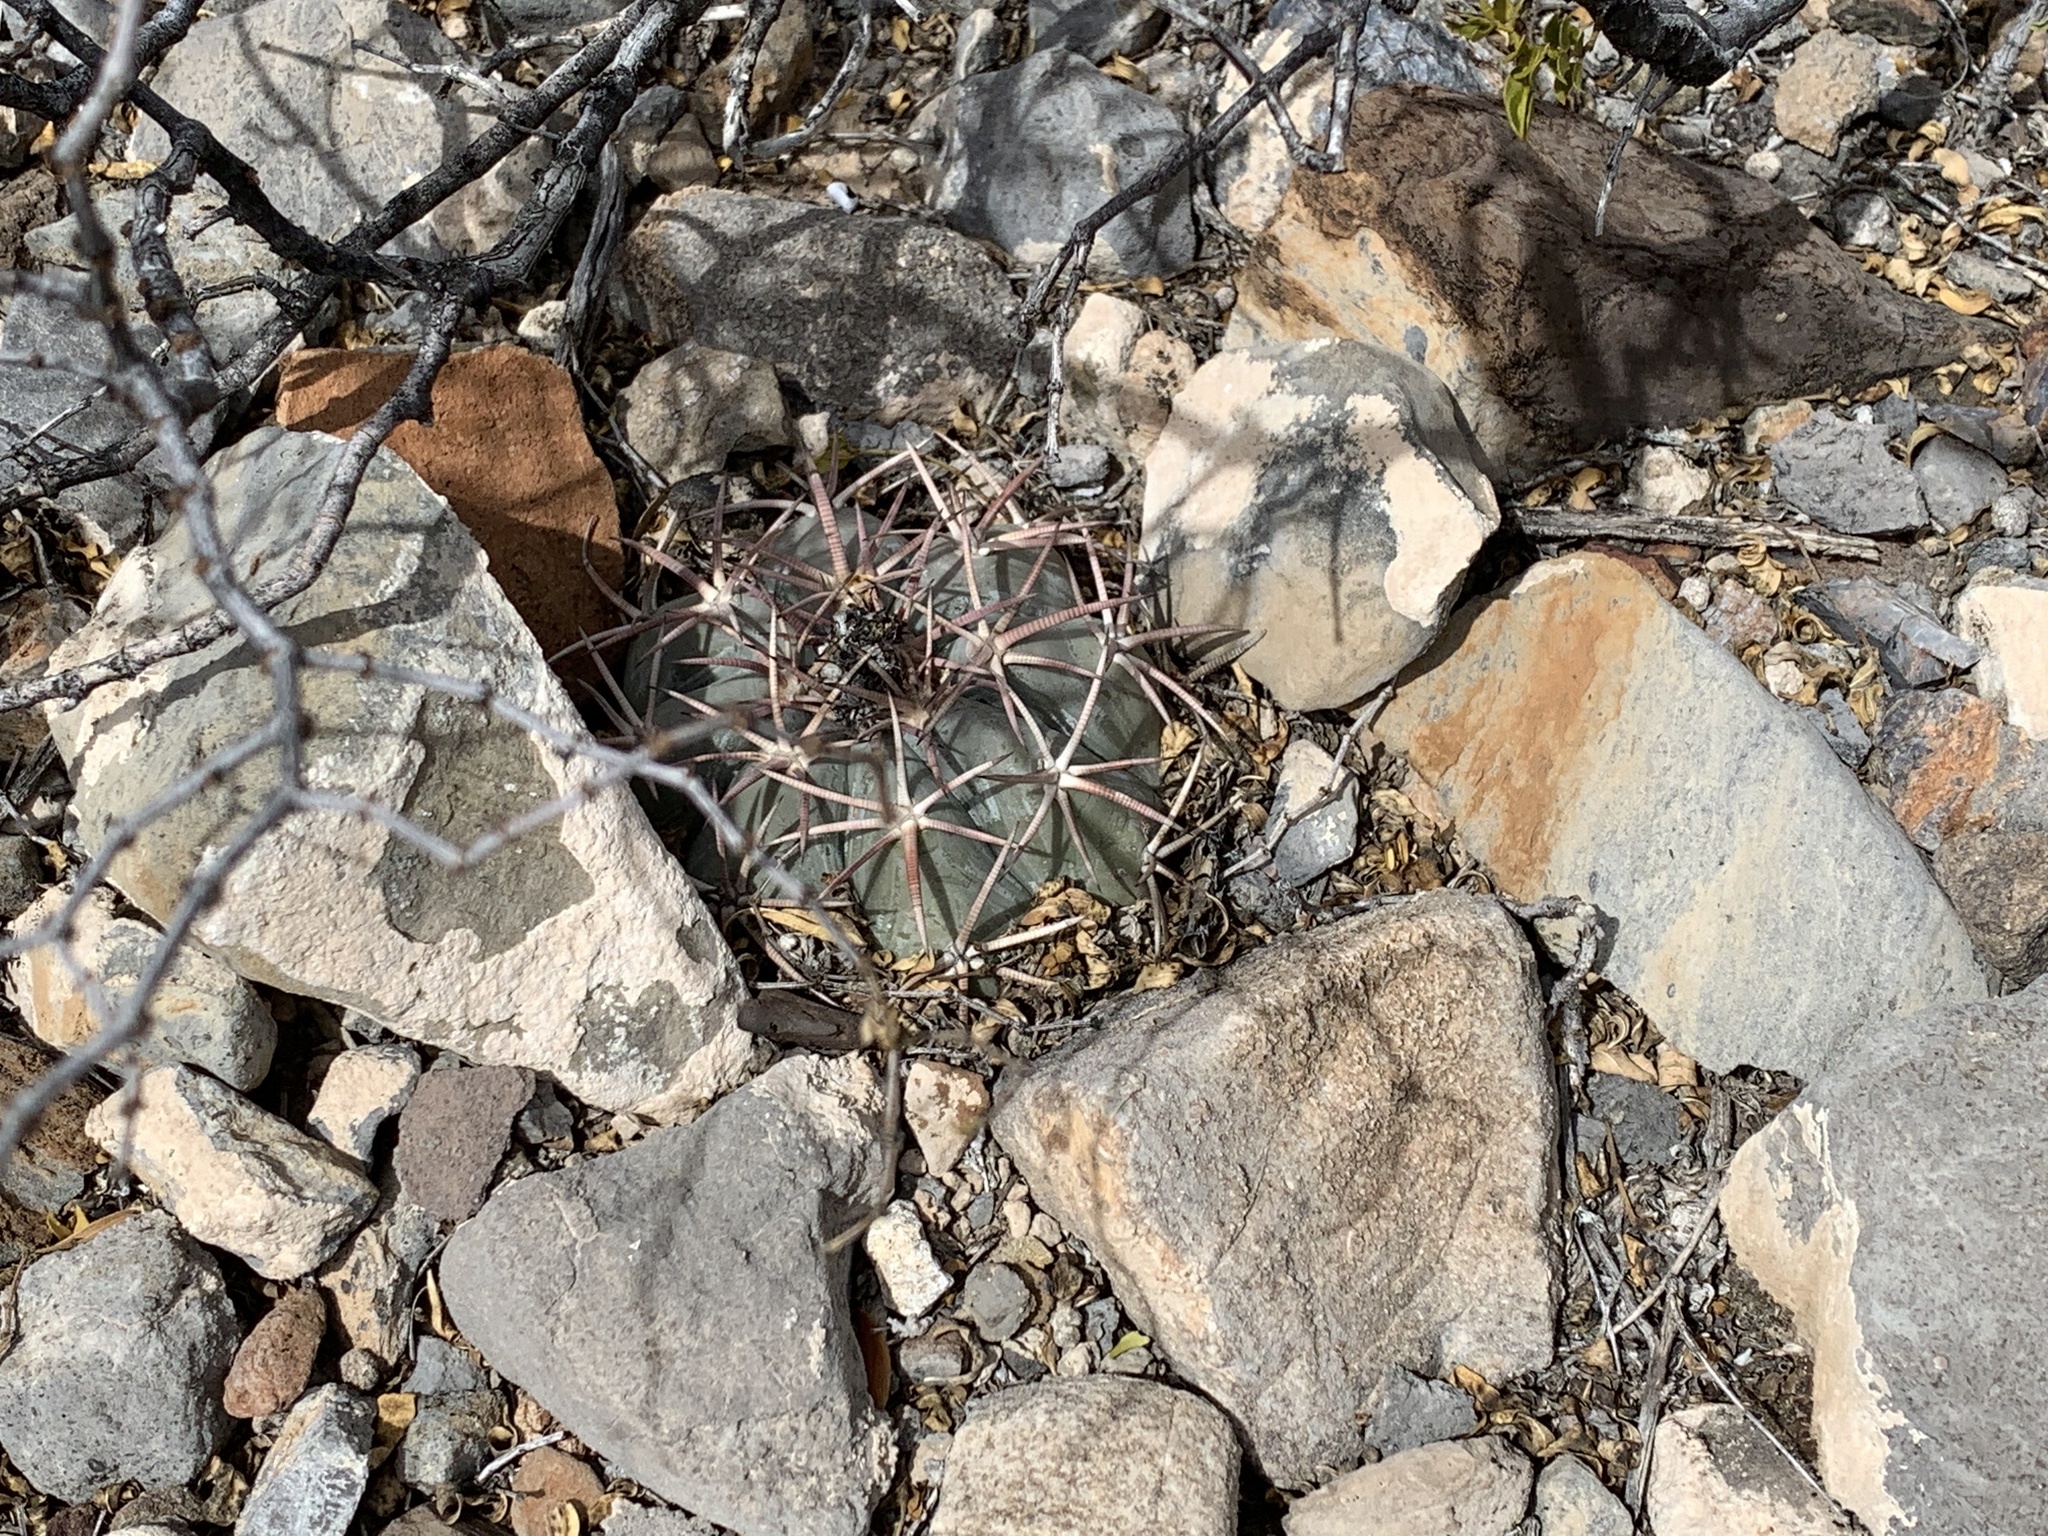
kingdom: Plantae
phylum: Tracheophyta
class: Magnoliopsida
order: Caryophyllales
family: Cactaceae
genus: Echinocactus
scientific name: Echinocactus horizonthalonius
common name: Devilshead
